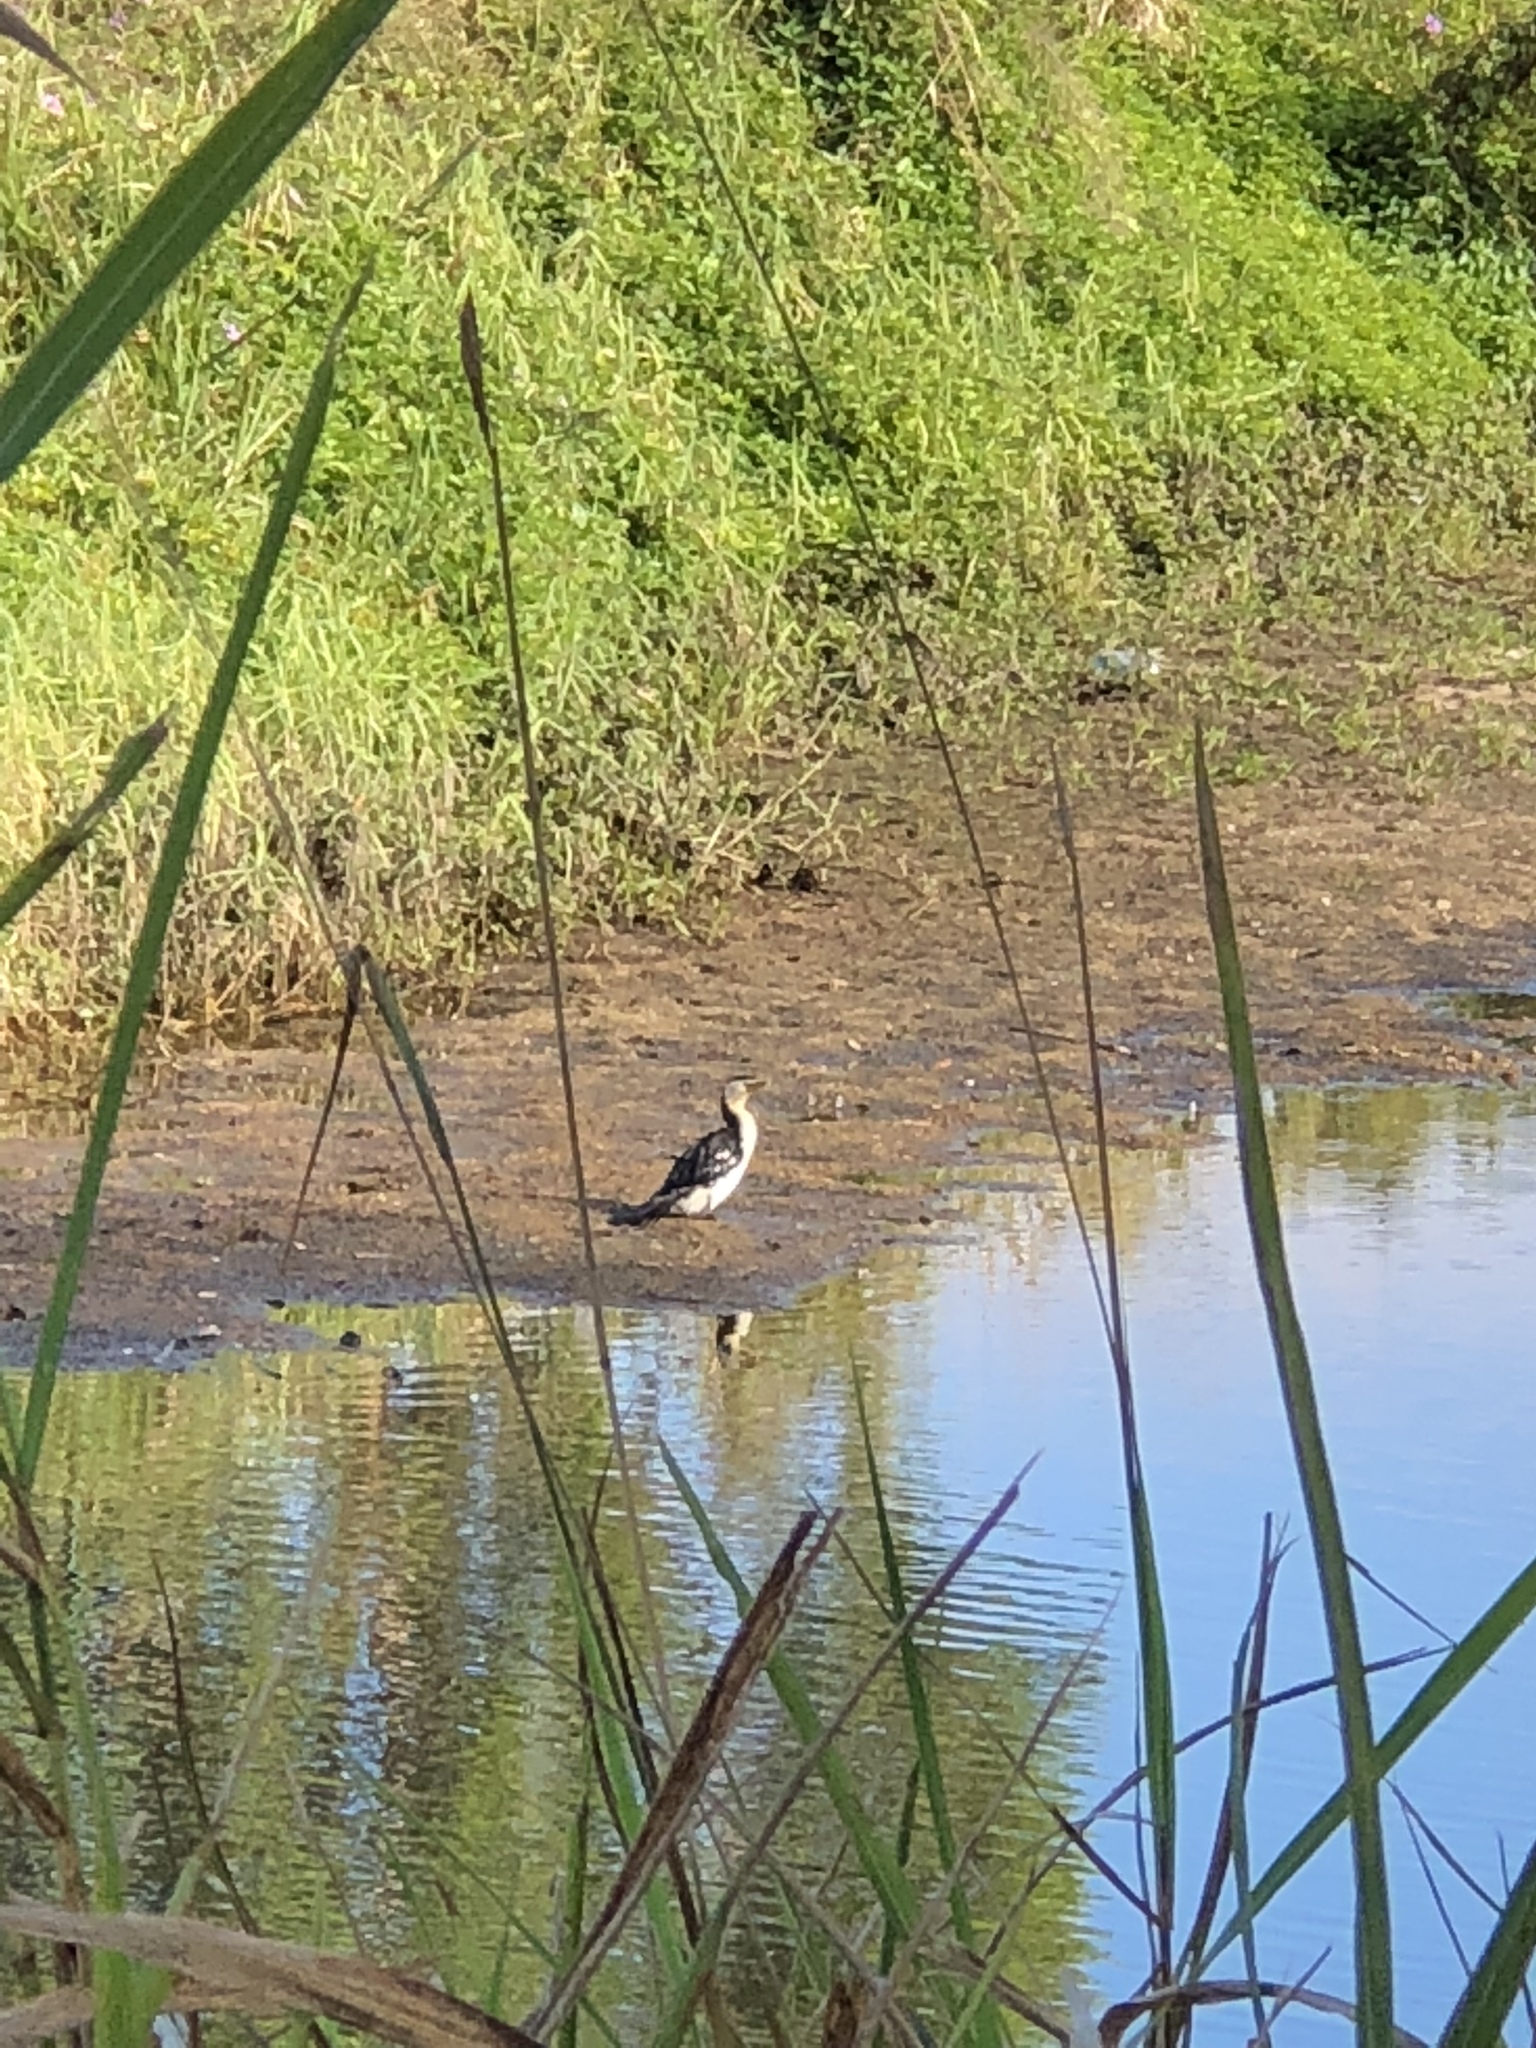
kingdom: Animalia
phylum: Chordata
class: Aves
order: Suliformes
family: Phalacrocoracidae
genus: Microcarbo
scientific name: Microcarbo melanoleucos
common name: Little pied cormorant
